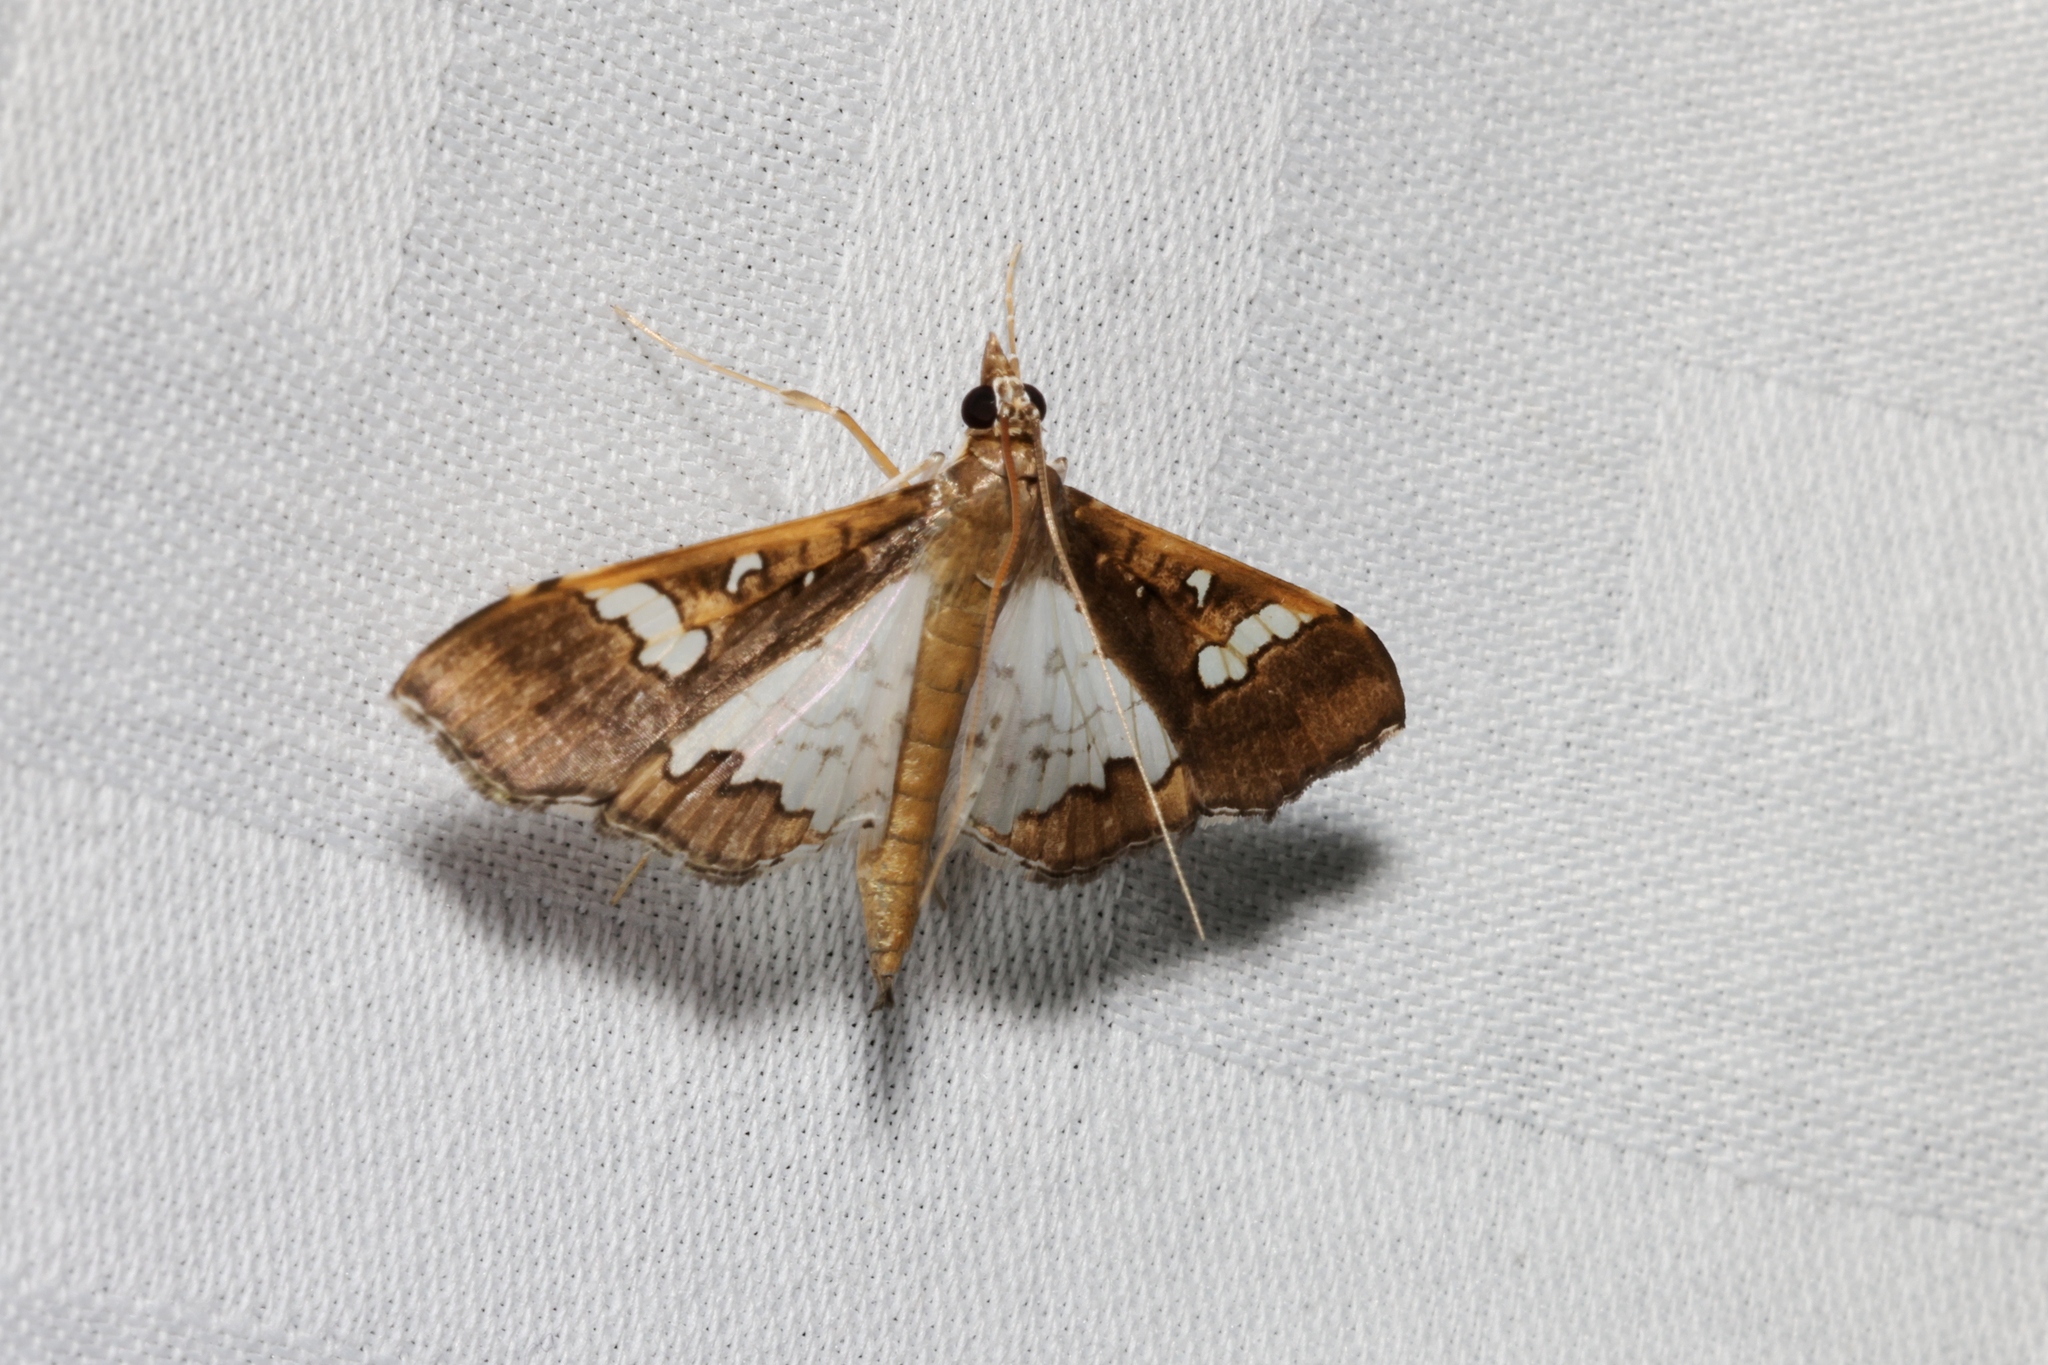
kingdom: Animalia
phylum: Arthropoda
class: Insecta
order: Lepidoptera
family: Crambidae
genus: Maruca
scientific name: Maruca vitrata
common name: Maruca pod borer
